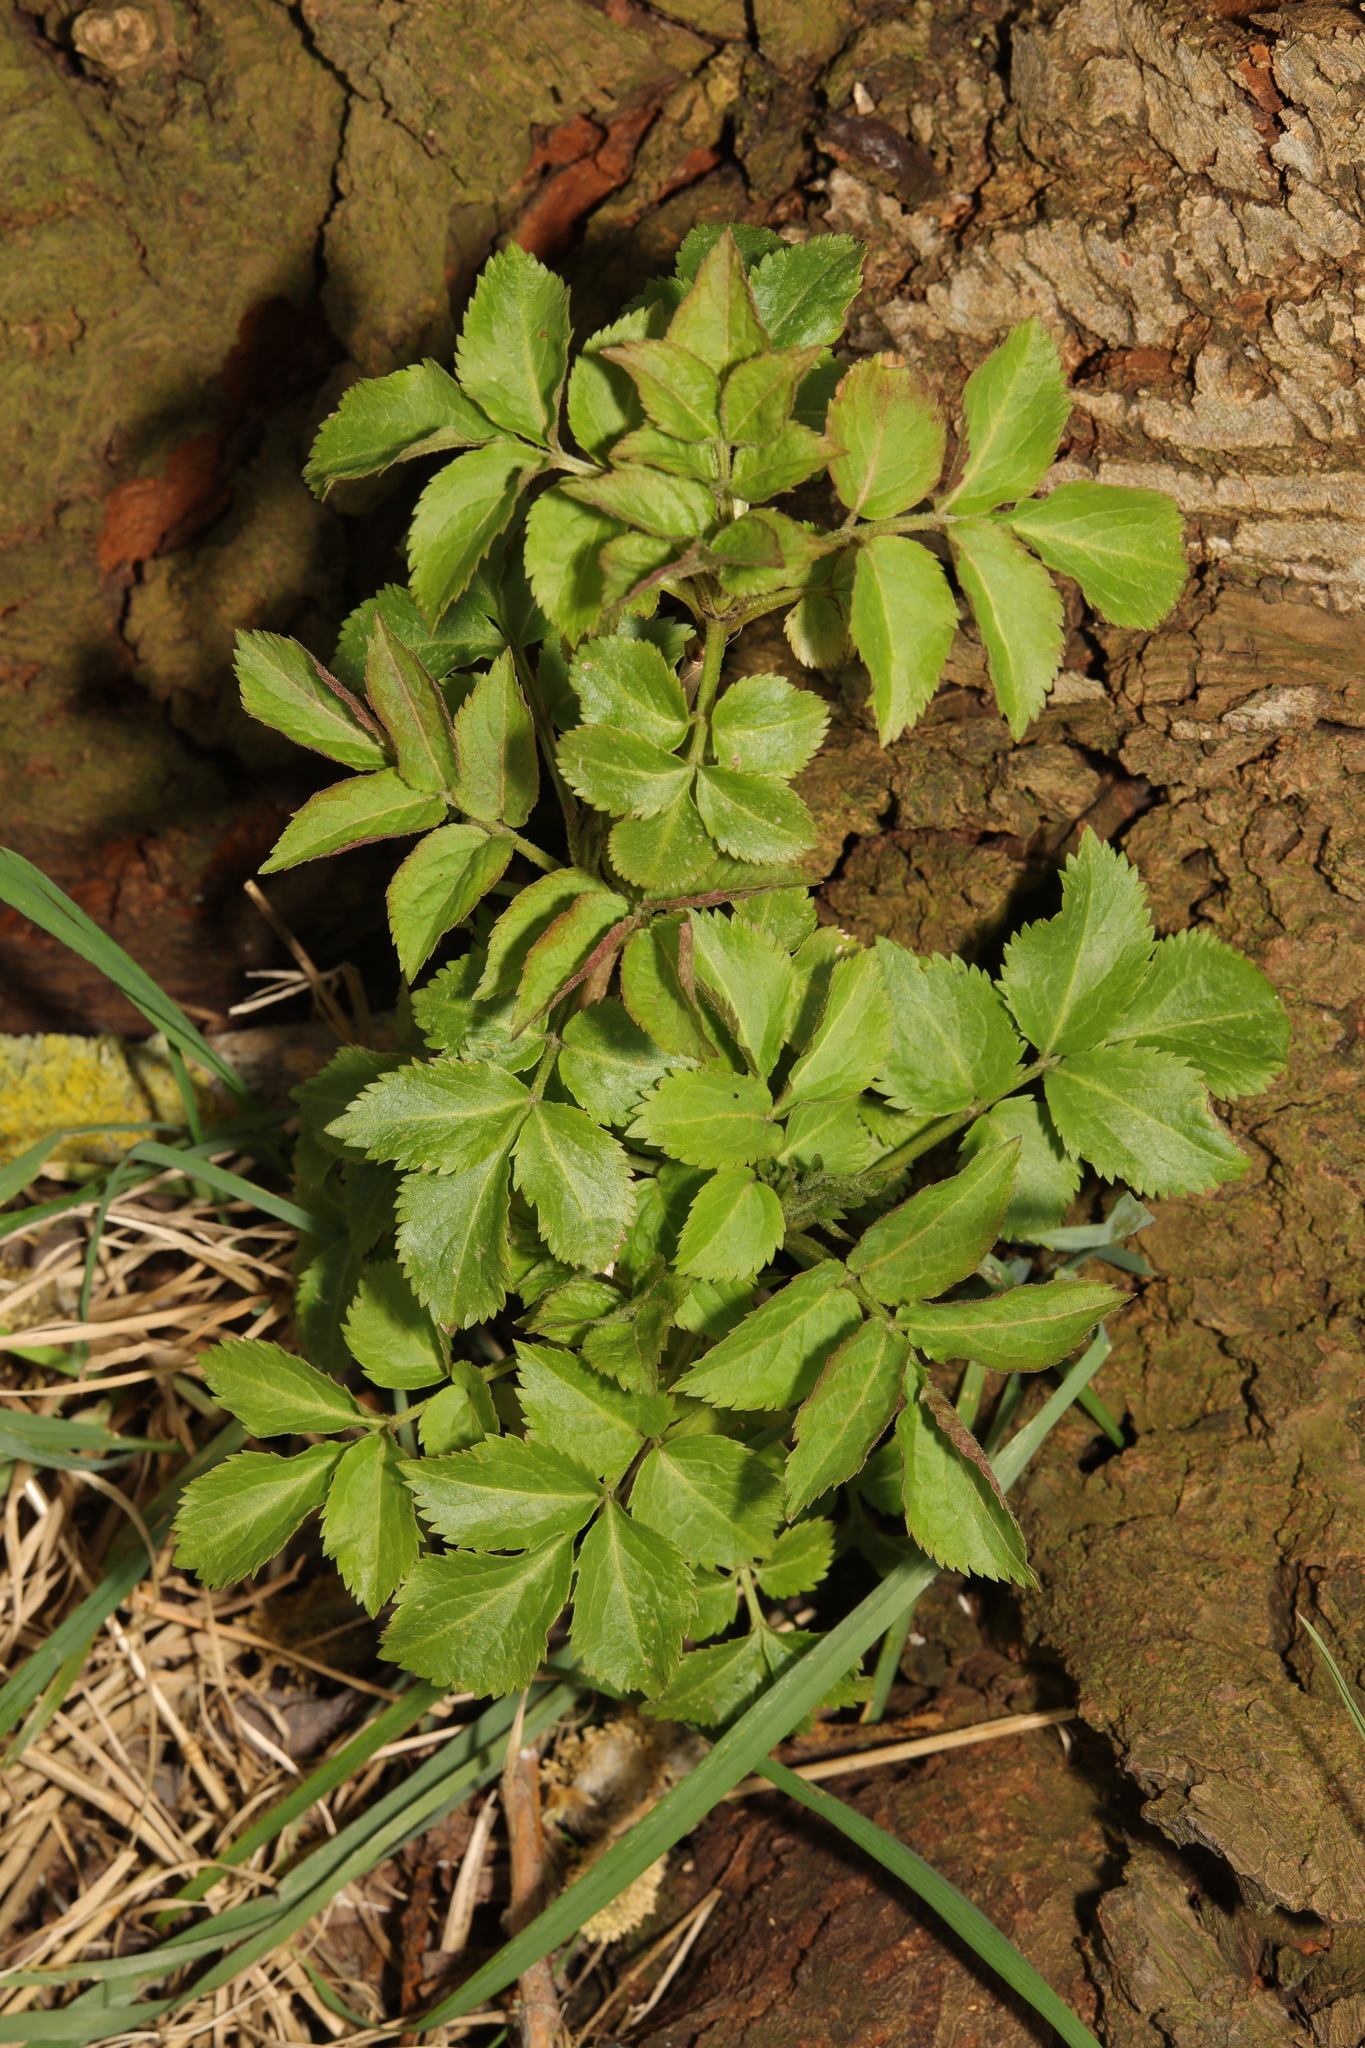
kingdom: Plantae
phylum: Tracheophyta
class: Magnoliopsida
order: Dipsacales
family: Viburnaceae
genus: Sambucus
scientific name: Sambucus nigra
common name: Elder
